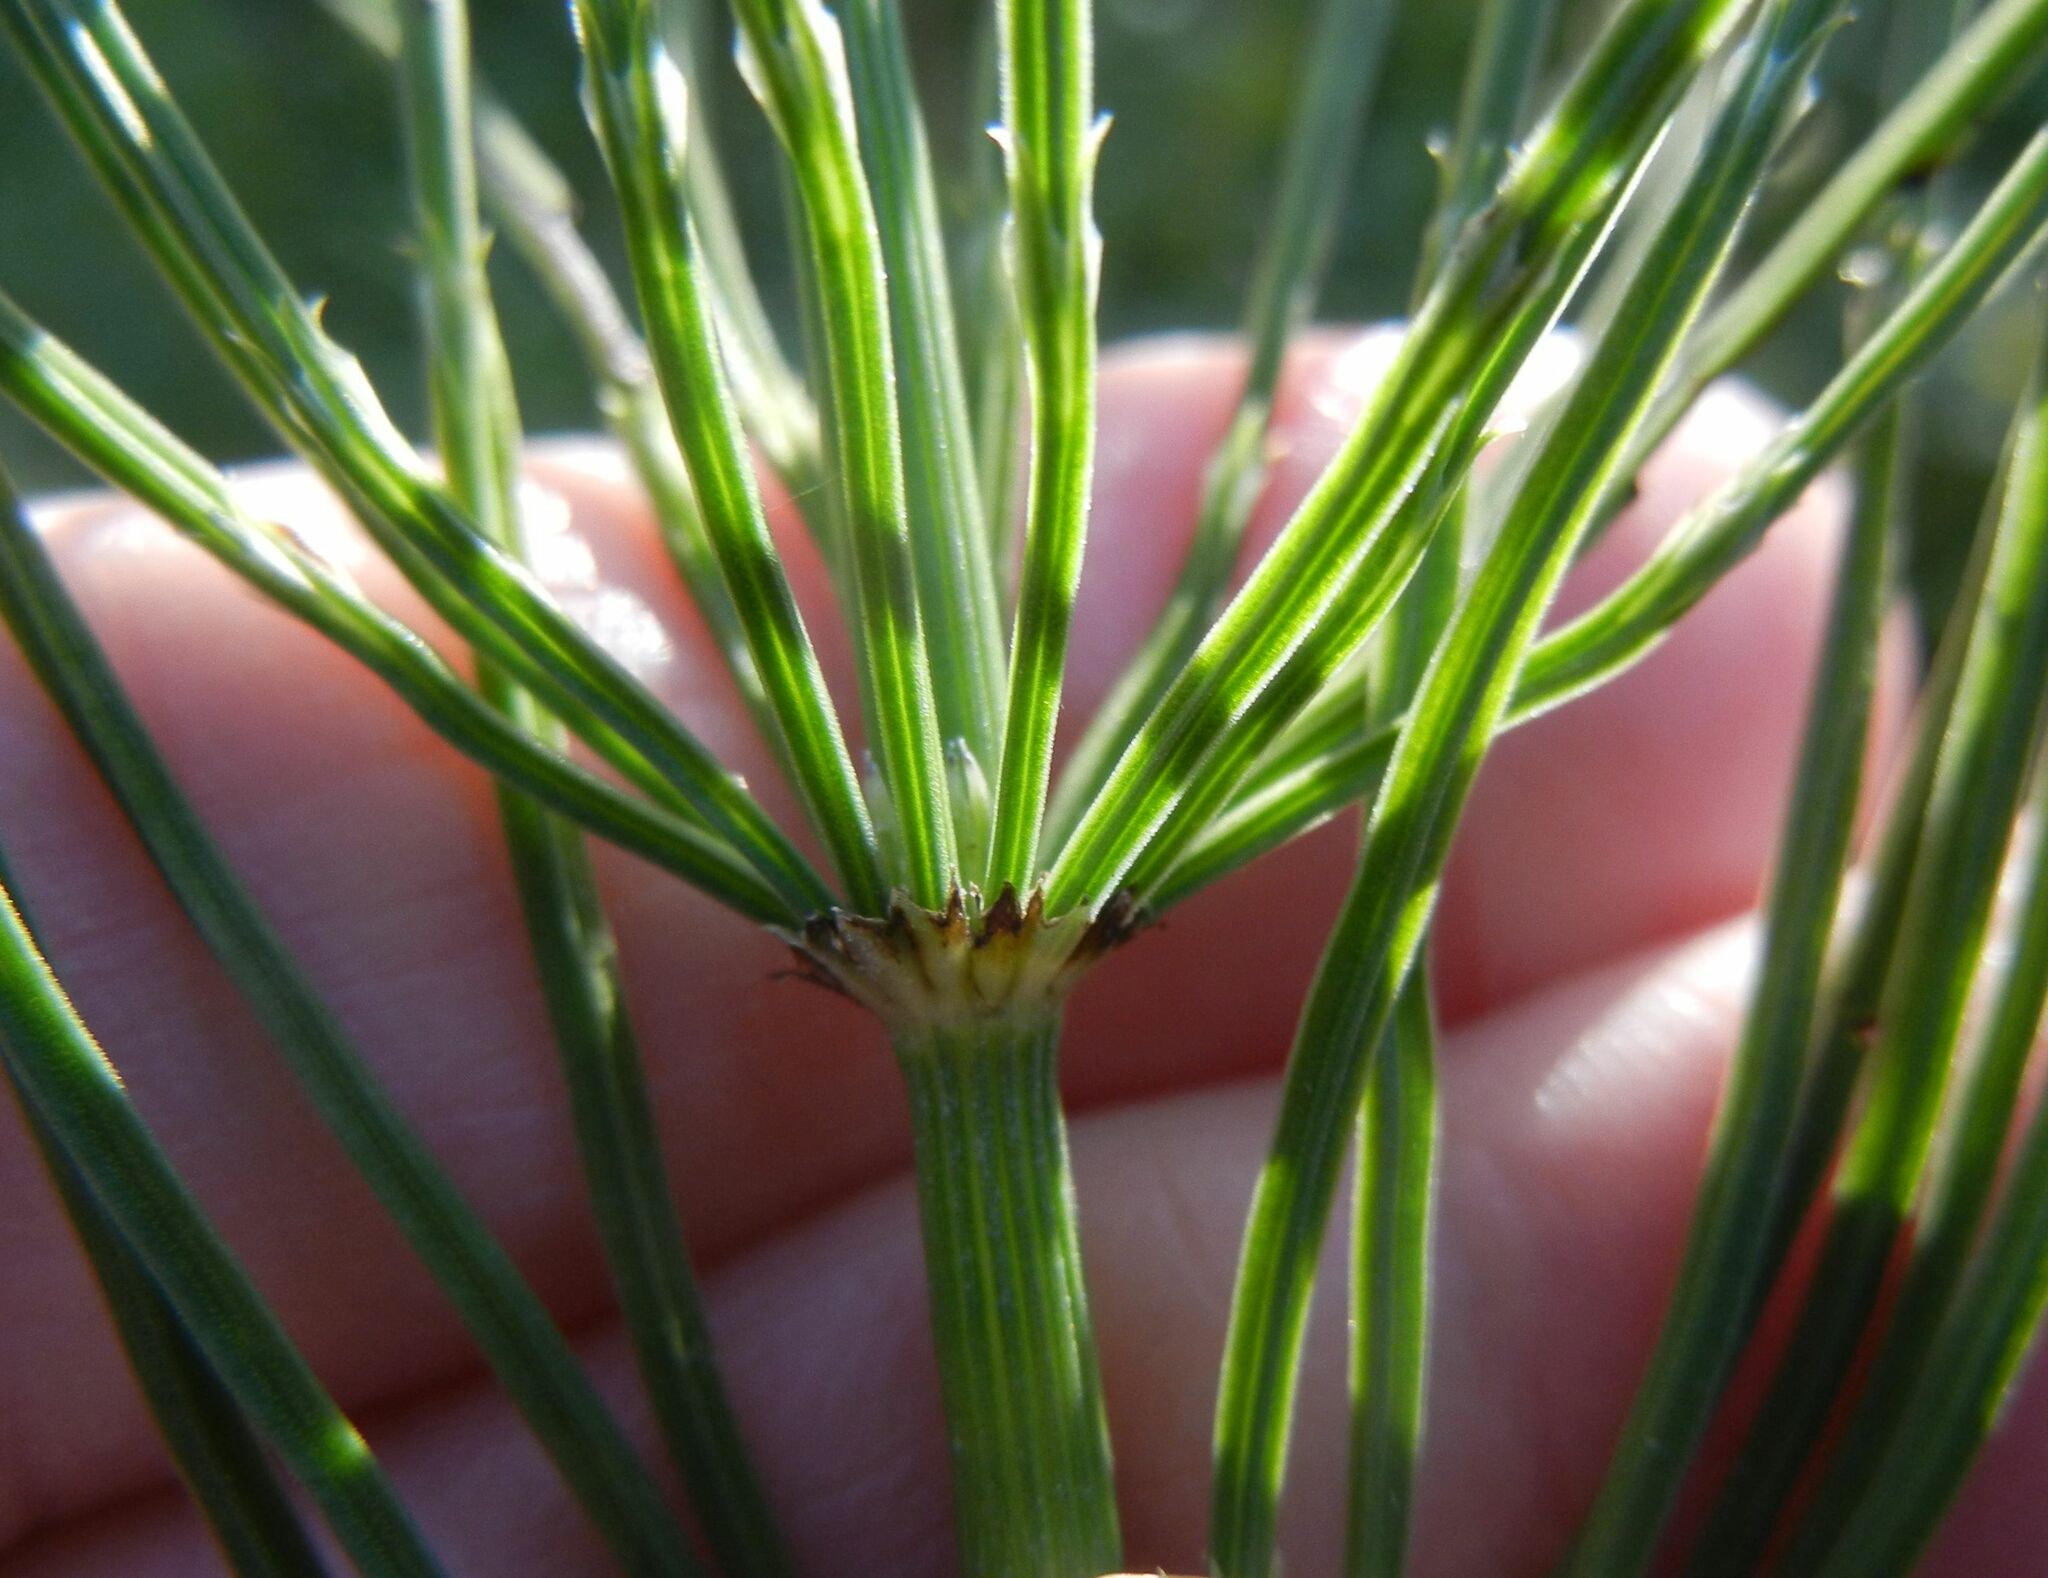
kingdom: Plantae
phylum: Tracheophyta
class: Polypodiopsida
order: Equisetales
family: Equisetaceae
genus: Equisetum
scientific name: Equisetum arvense
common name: Field horsetail
